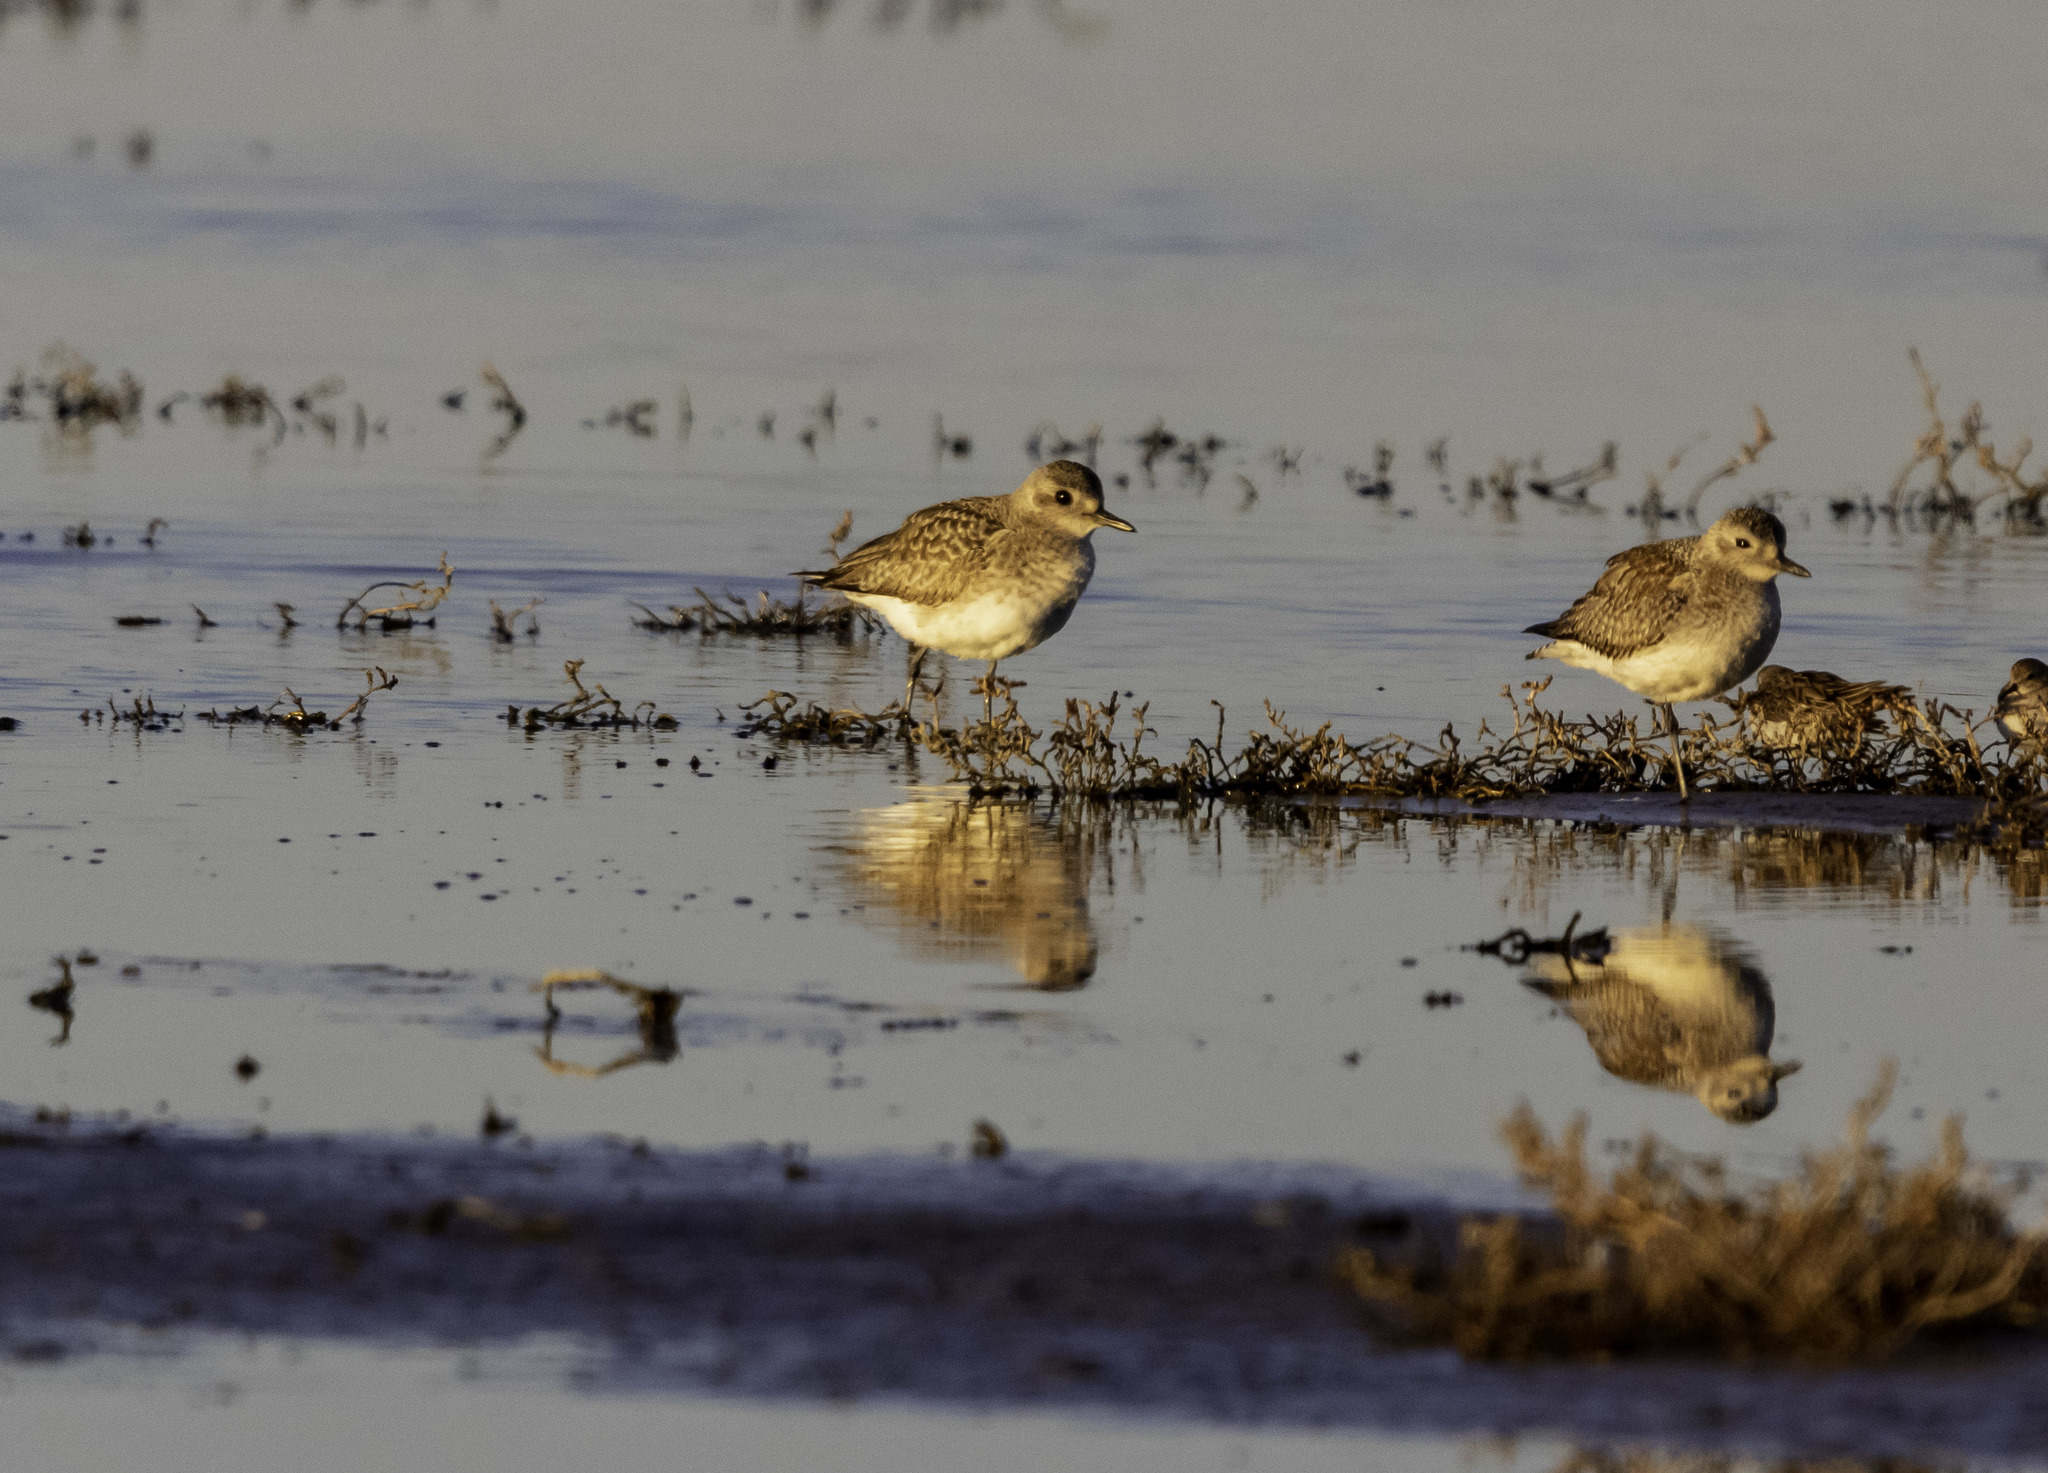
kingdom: Animalia
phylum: Chordata
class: Aves
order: Charadriiformes
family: Charadriidae
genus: Pluvialis
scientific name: Pluvialis squatarola
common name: Grey plover
